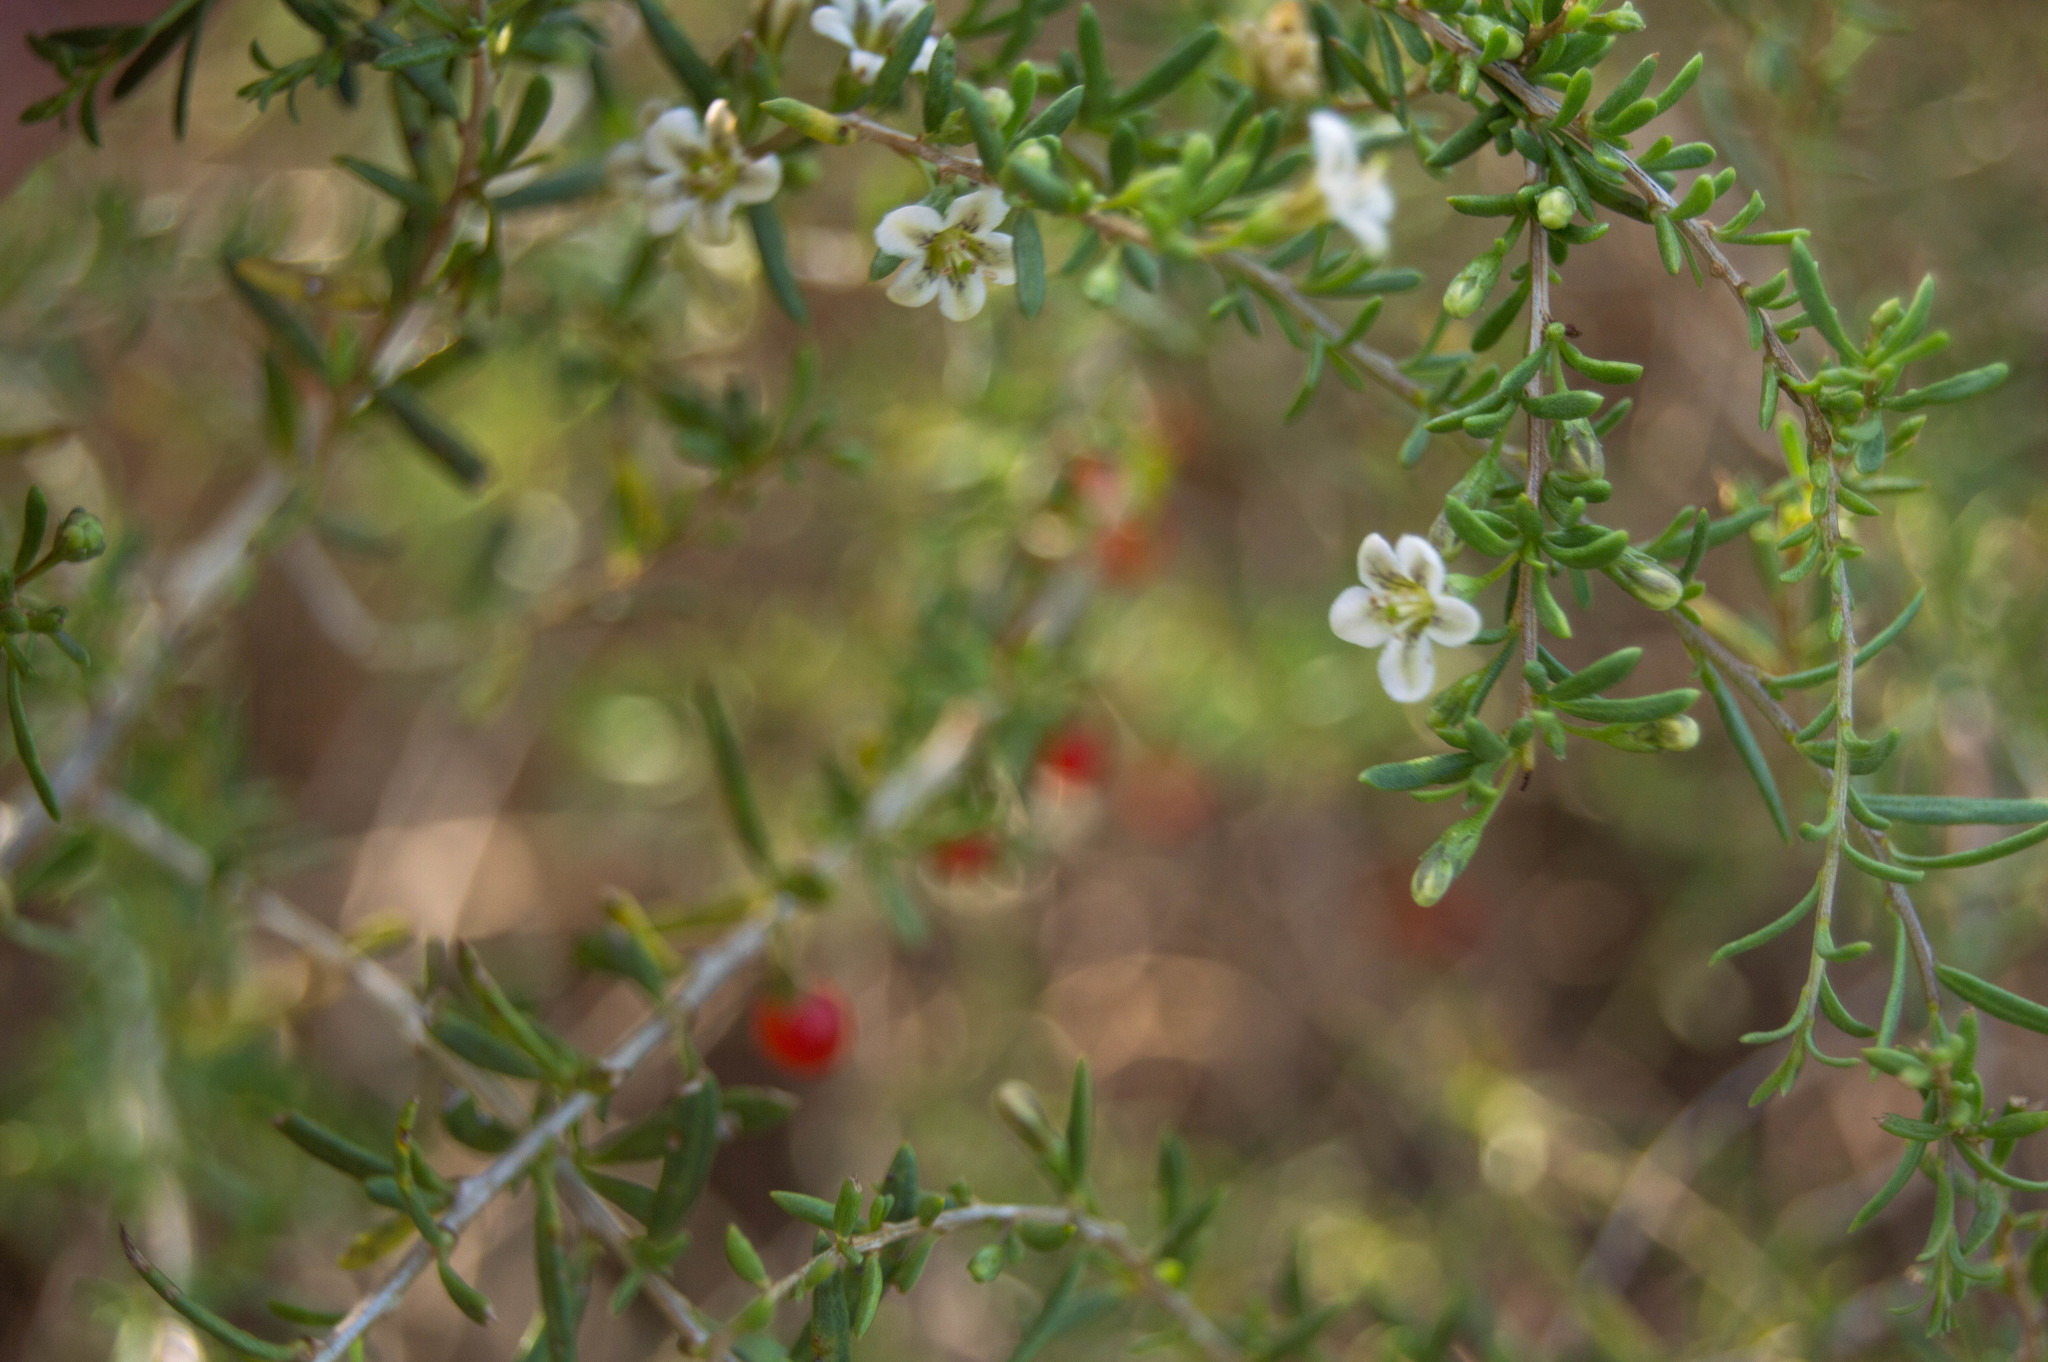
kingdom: Plantae
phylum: Tracheophyta
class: Magnoliopsida
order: Solanales
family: Solanaceae
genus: Lycium
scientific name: Lycium chilense
